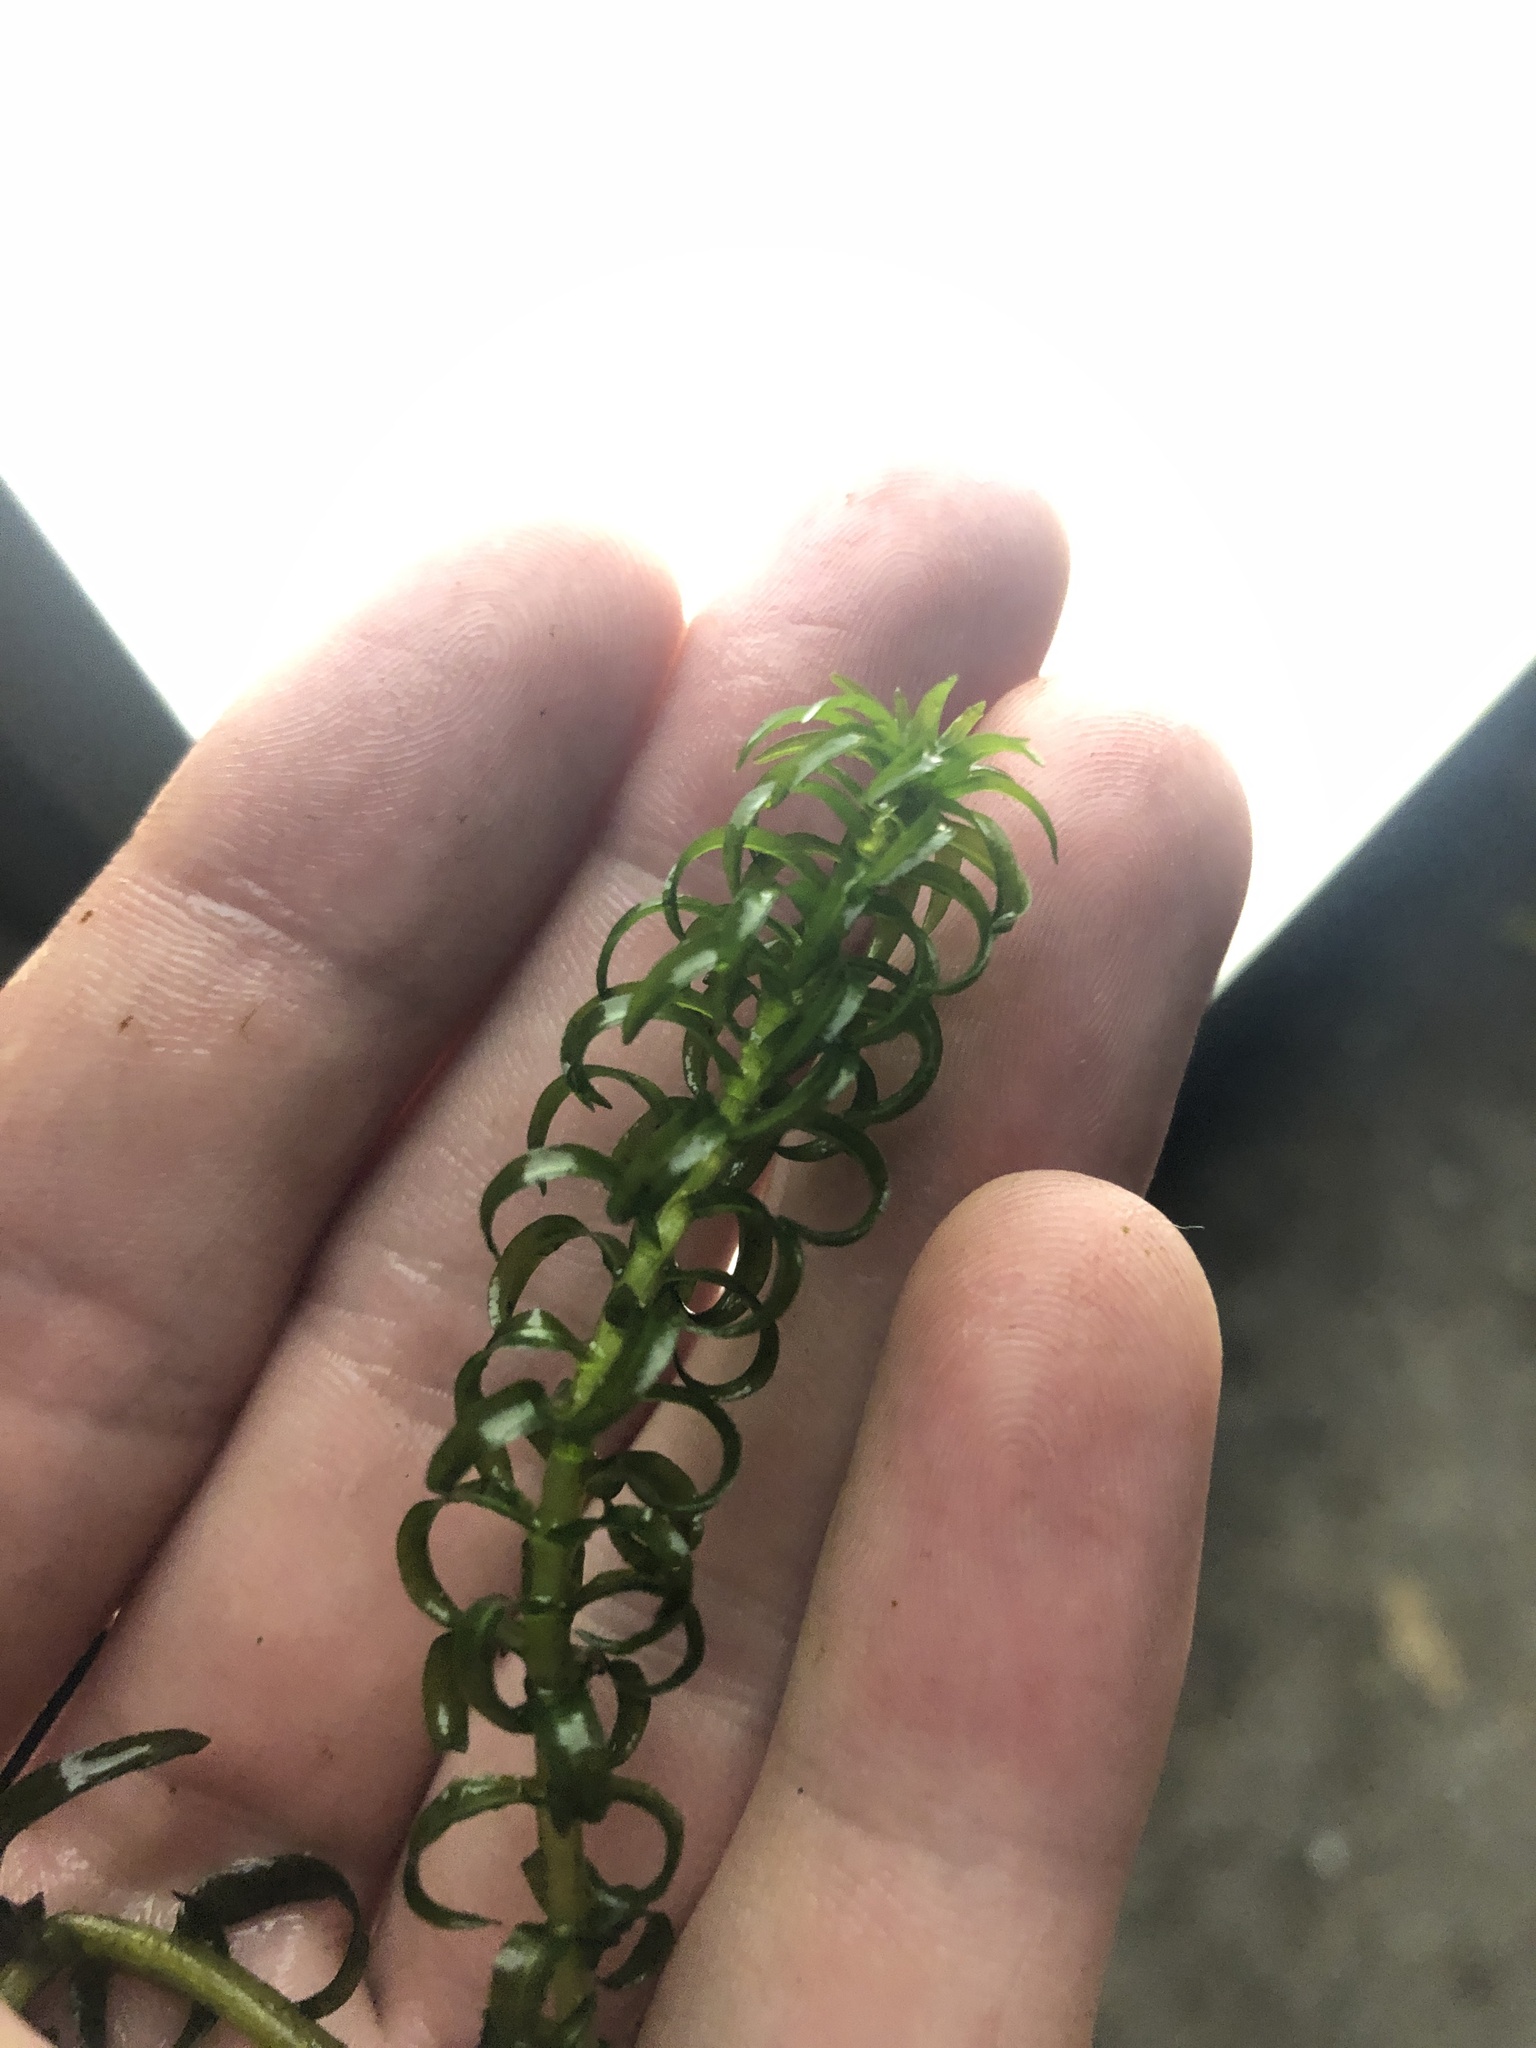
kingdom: Plantae
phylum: Tracheophyta
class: Liliopsida
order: Alismatales
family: Hydrocharitaceae
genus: Lagarosiphon
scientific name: Lagarosiphon major
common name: Curly waterweed
